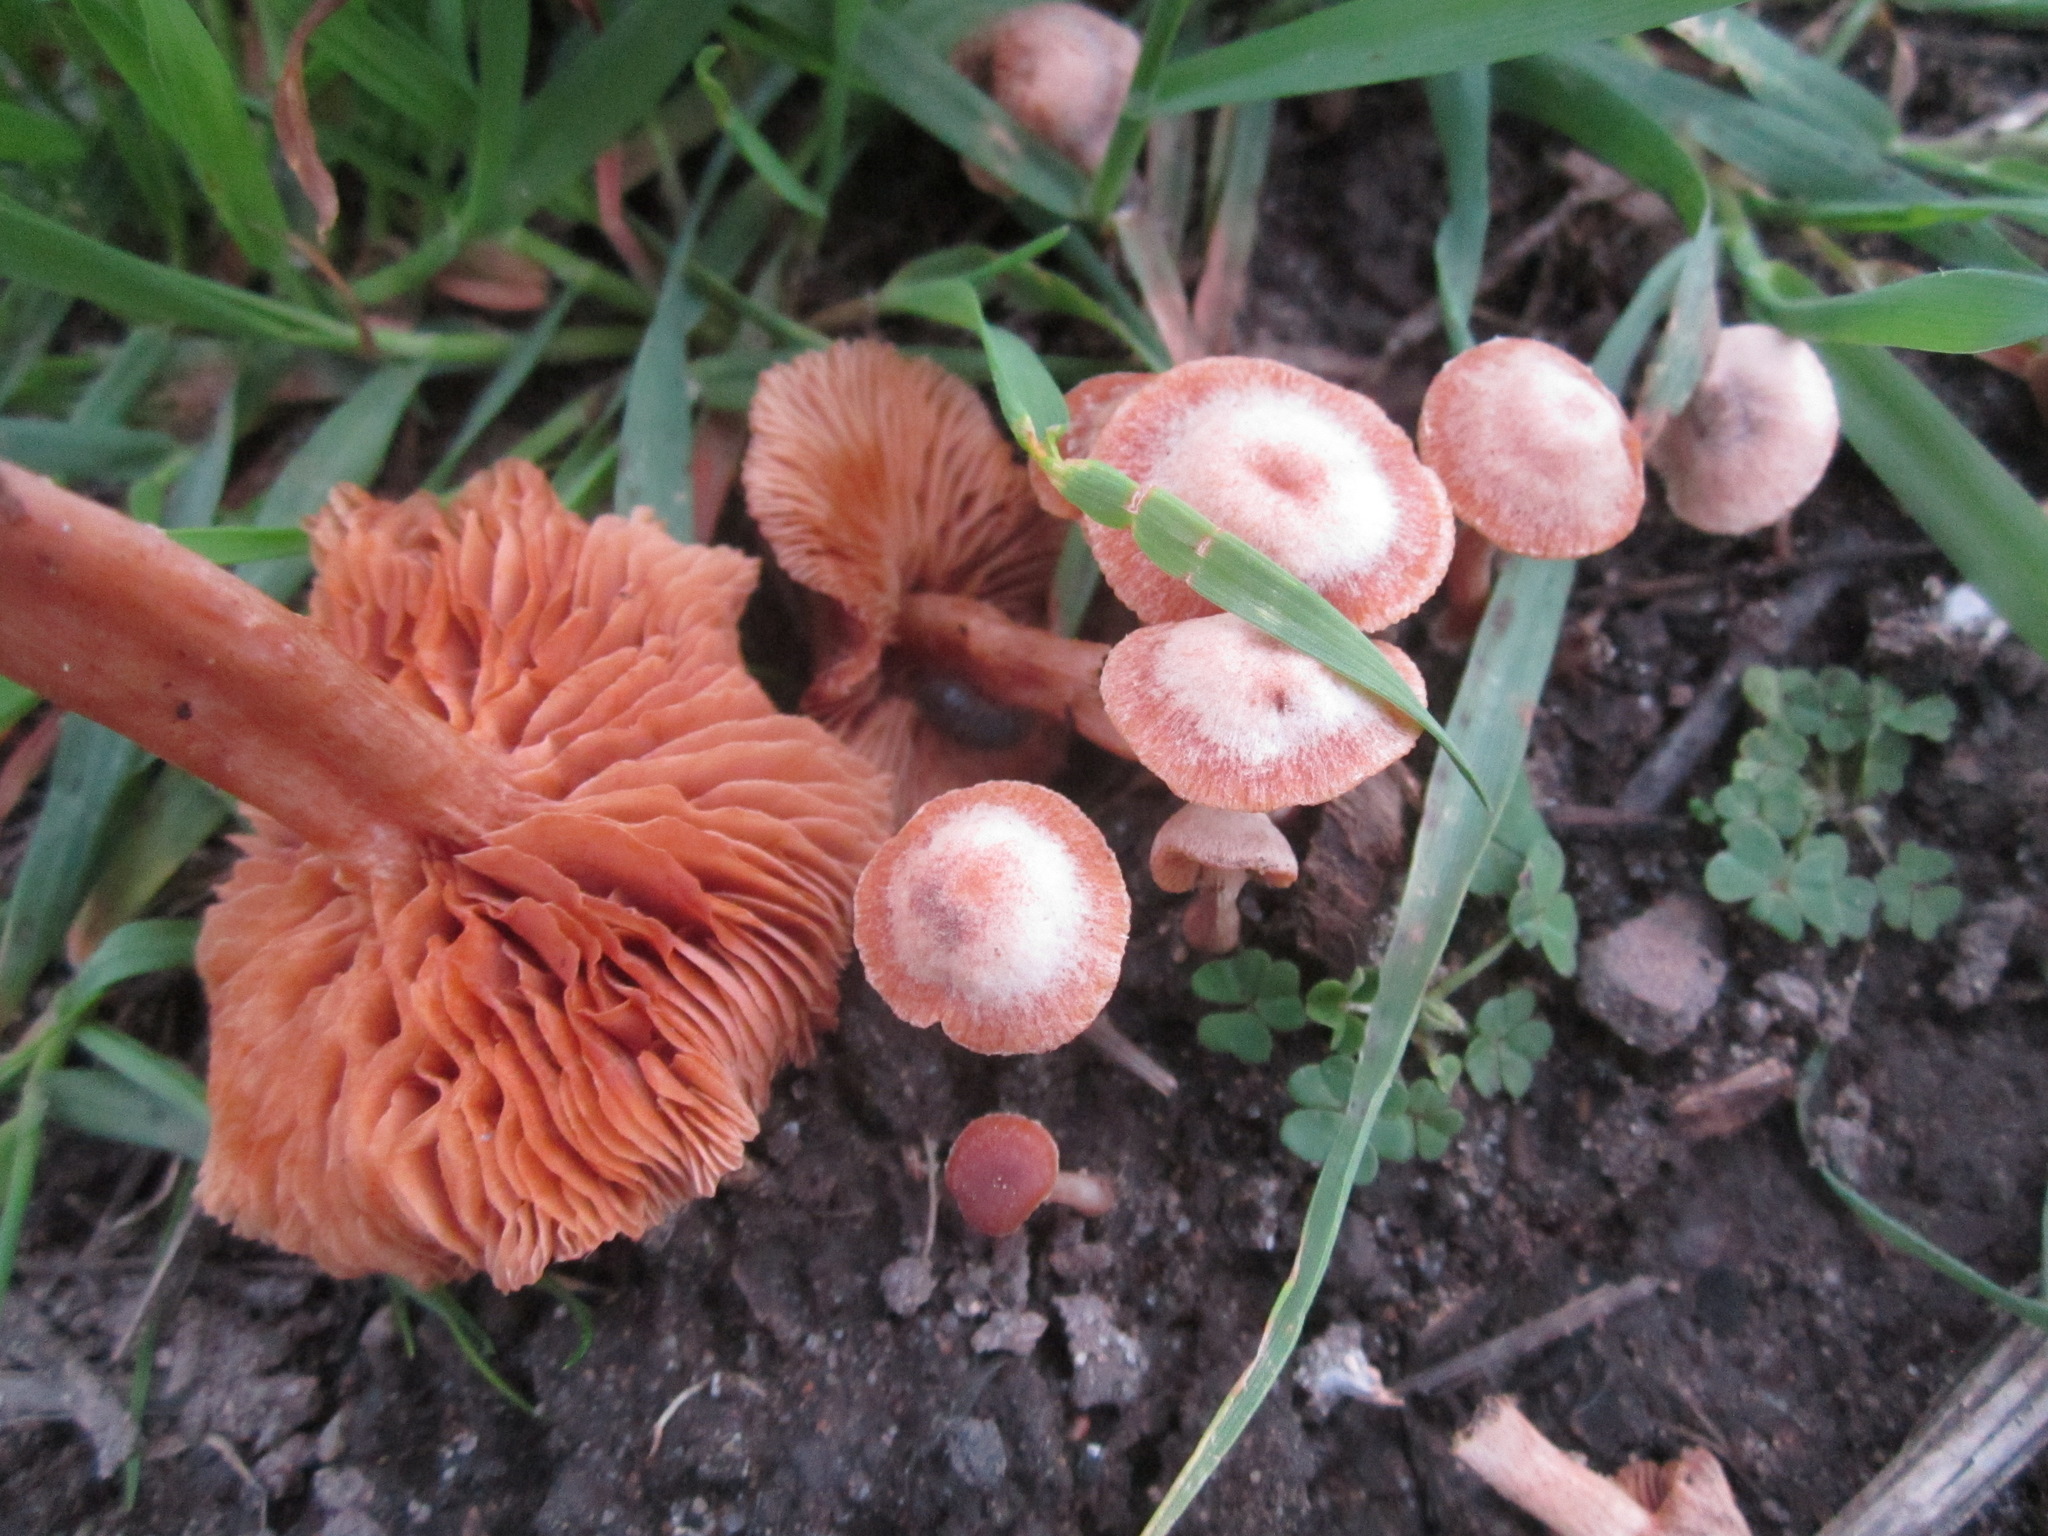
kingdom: Fungi
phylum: Basidiomycota
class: Agaricomycetes
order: Agaricales
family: Tubariaceae
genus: Tubaria
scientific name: Tubaria furfuracea
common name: Scurfy twiglet
